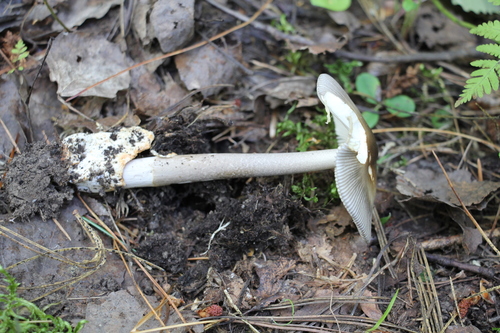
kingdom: Fungi
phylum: Basidiomycota
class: Agaricomycetes
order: Agaricales
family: Amanitaceae
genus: Amanita
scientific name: Amanita battarrae
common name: Banded amanita
